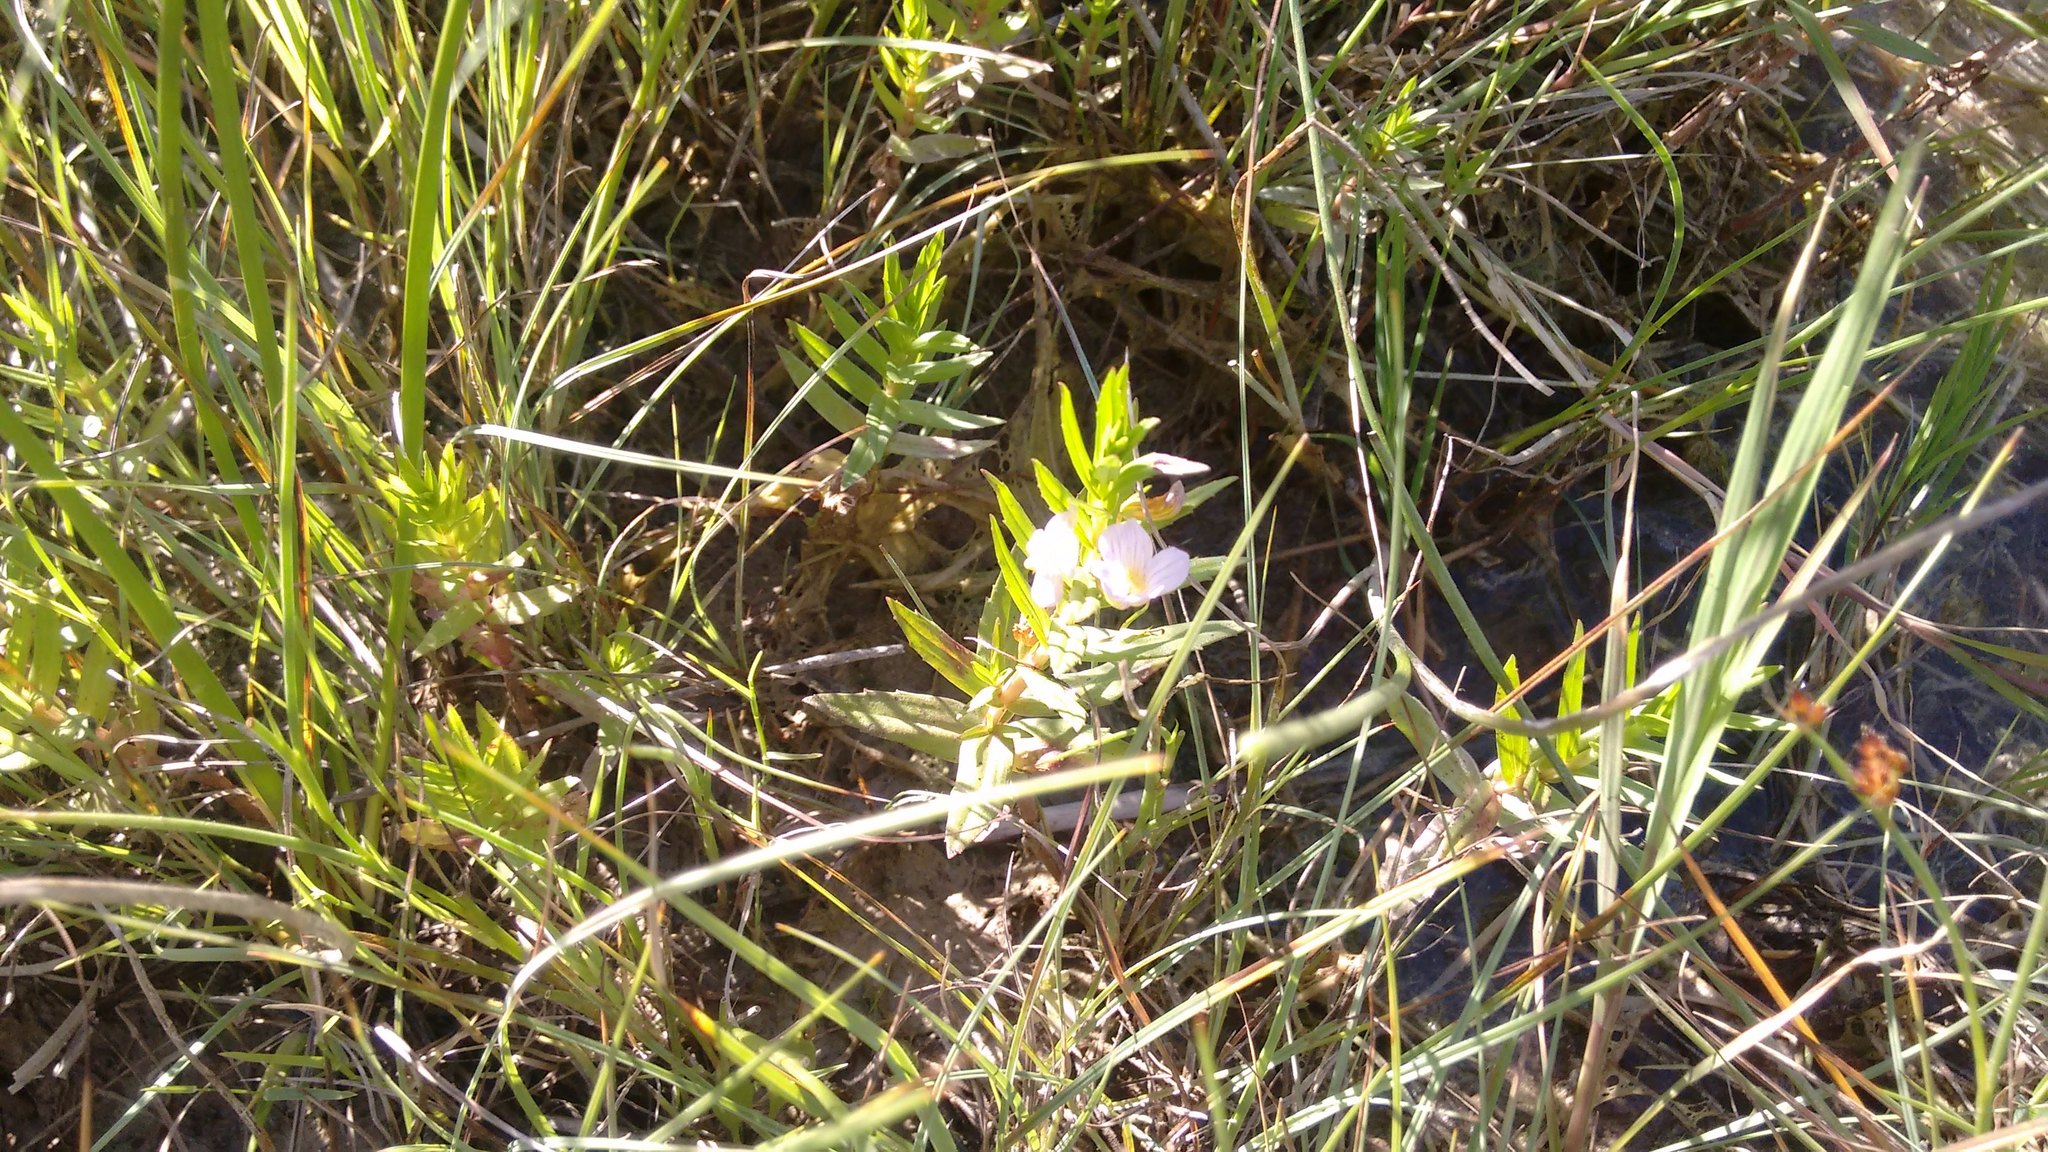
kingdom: Plantae
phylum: Tracheophyta
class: Magnoliopsida
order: Lamiales
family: Plantaginaceae
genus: Gratiola
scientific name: Gratiola officinalis
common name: Gratiola
